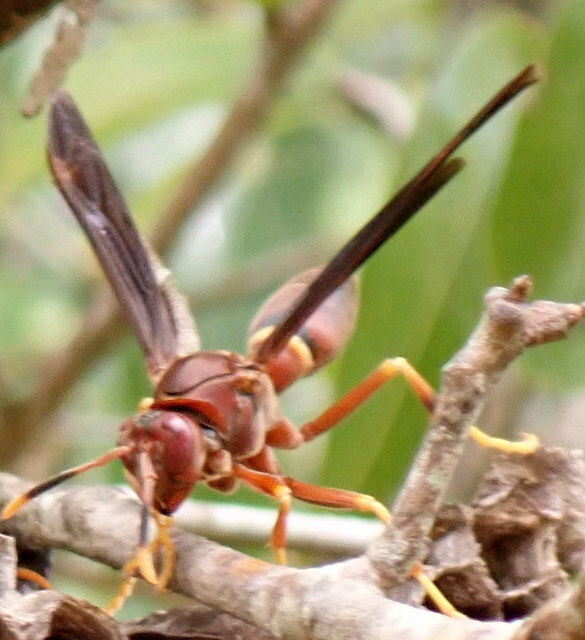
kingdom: Animalia
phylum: Arthropoda
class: Insecta
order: Hymenoptera
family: Eumenidae
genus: Polistes
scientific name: Polistes annularis
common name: Ringed paper wasp
